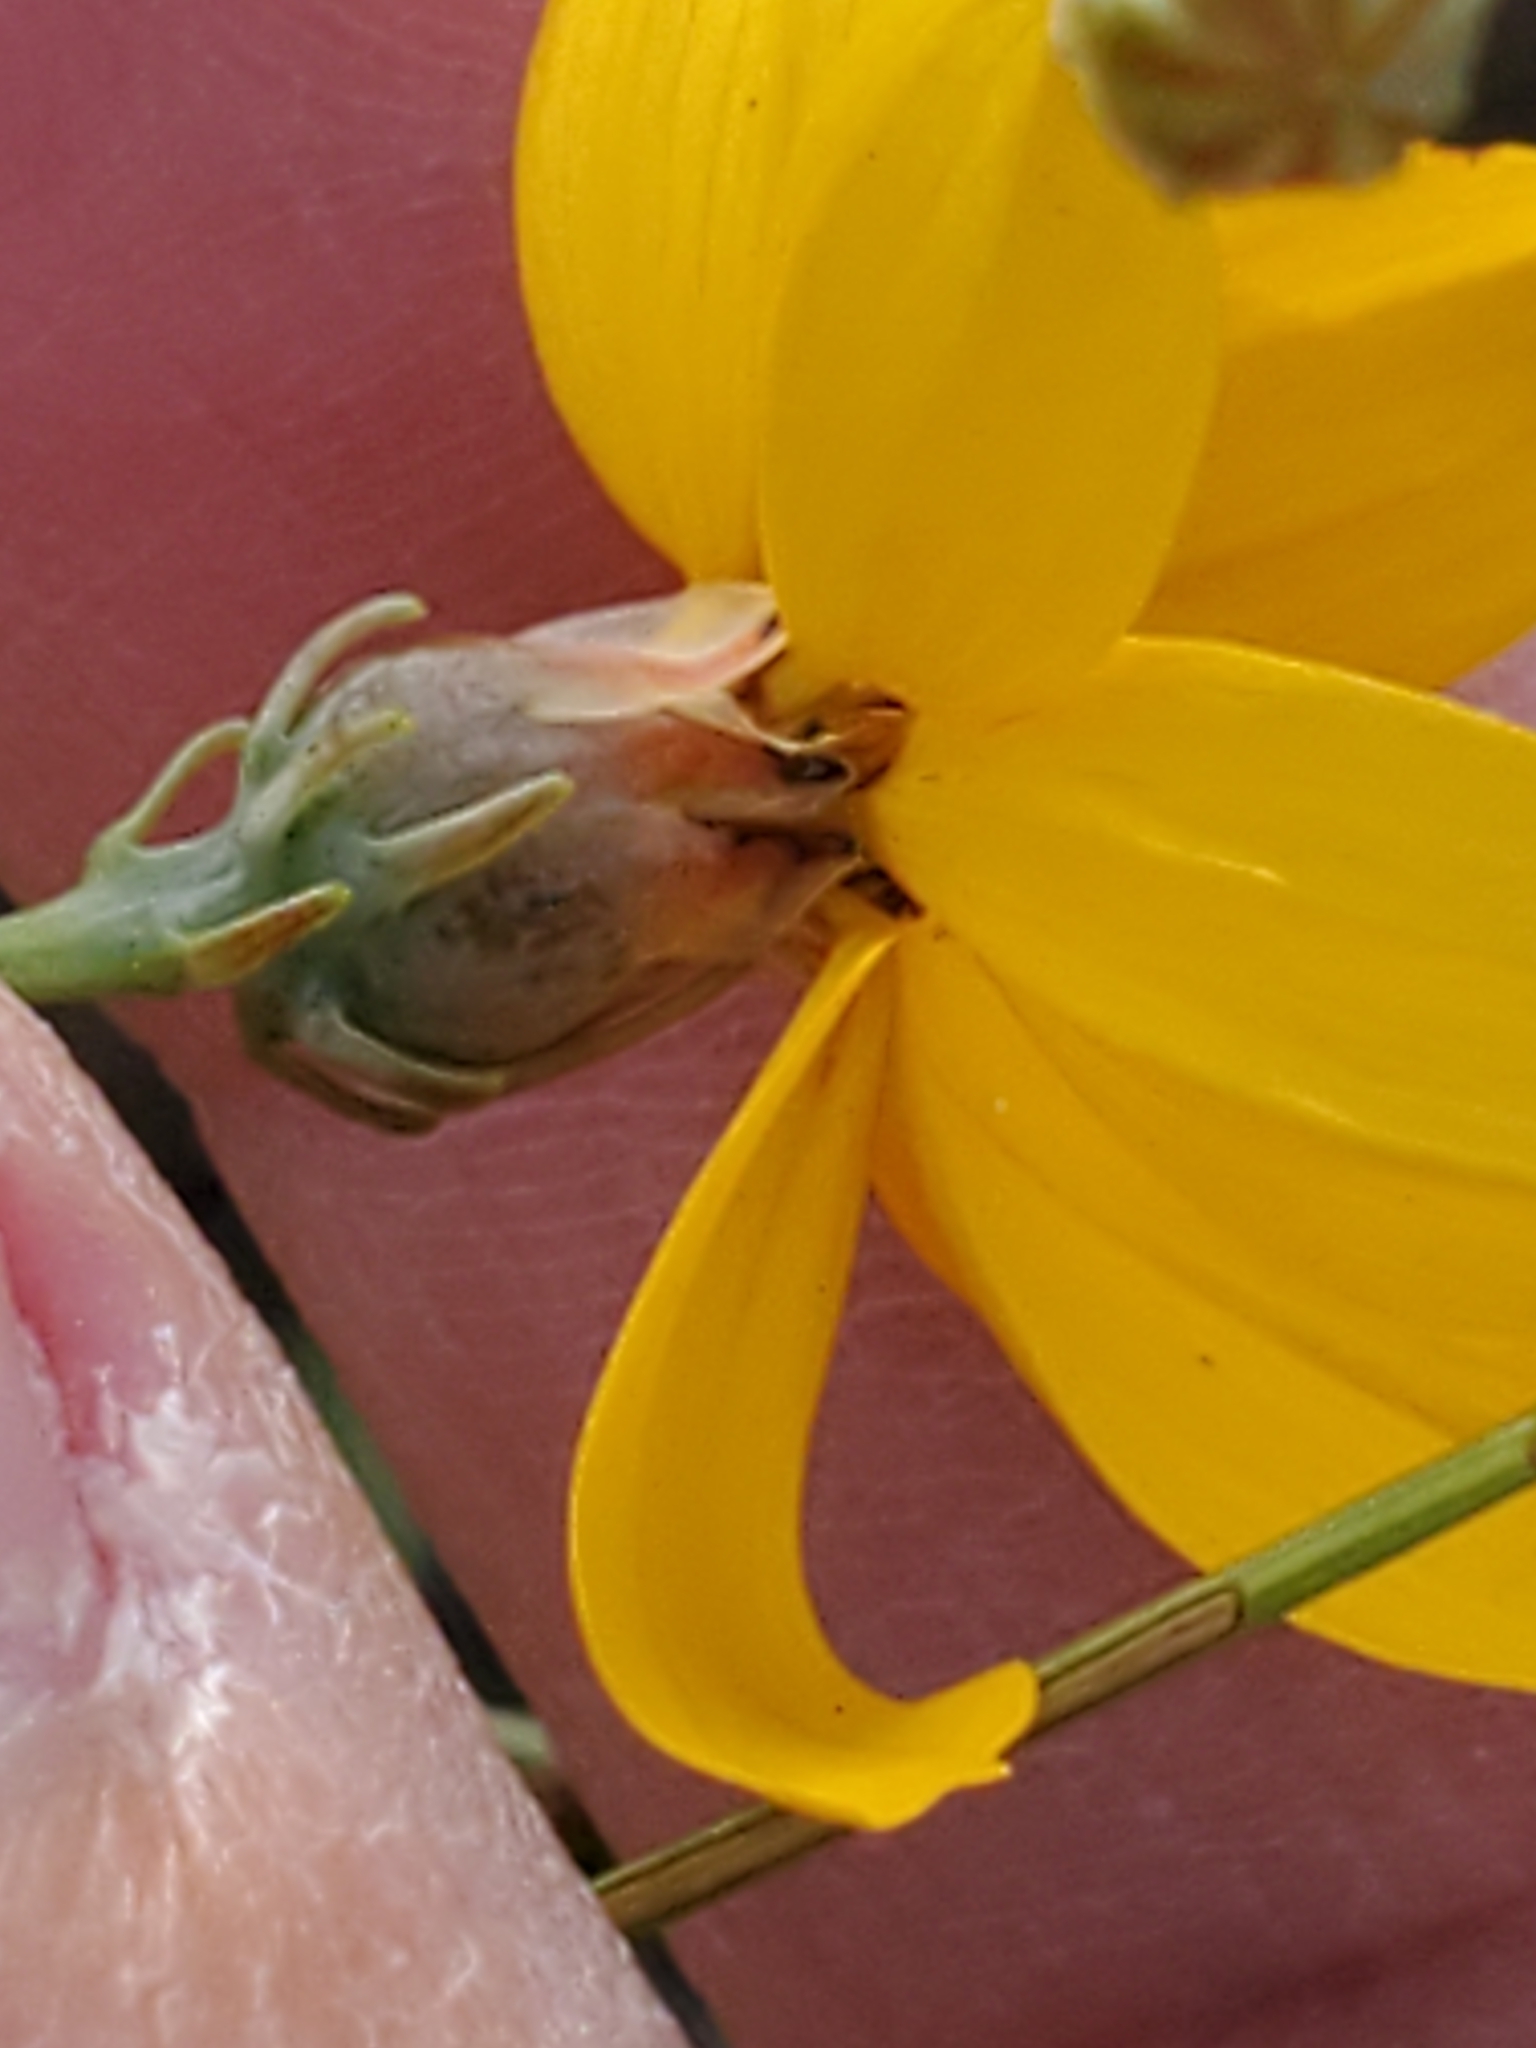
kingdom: Plantae
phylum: Tracheophyta
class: Magnoliopsida
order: Asterales
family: Asteraceae
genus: Thelesperma
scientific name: Thelesperma simplicifolium
